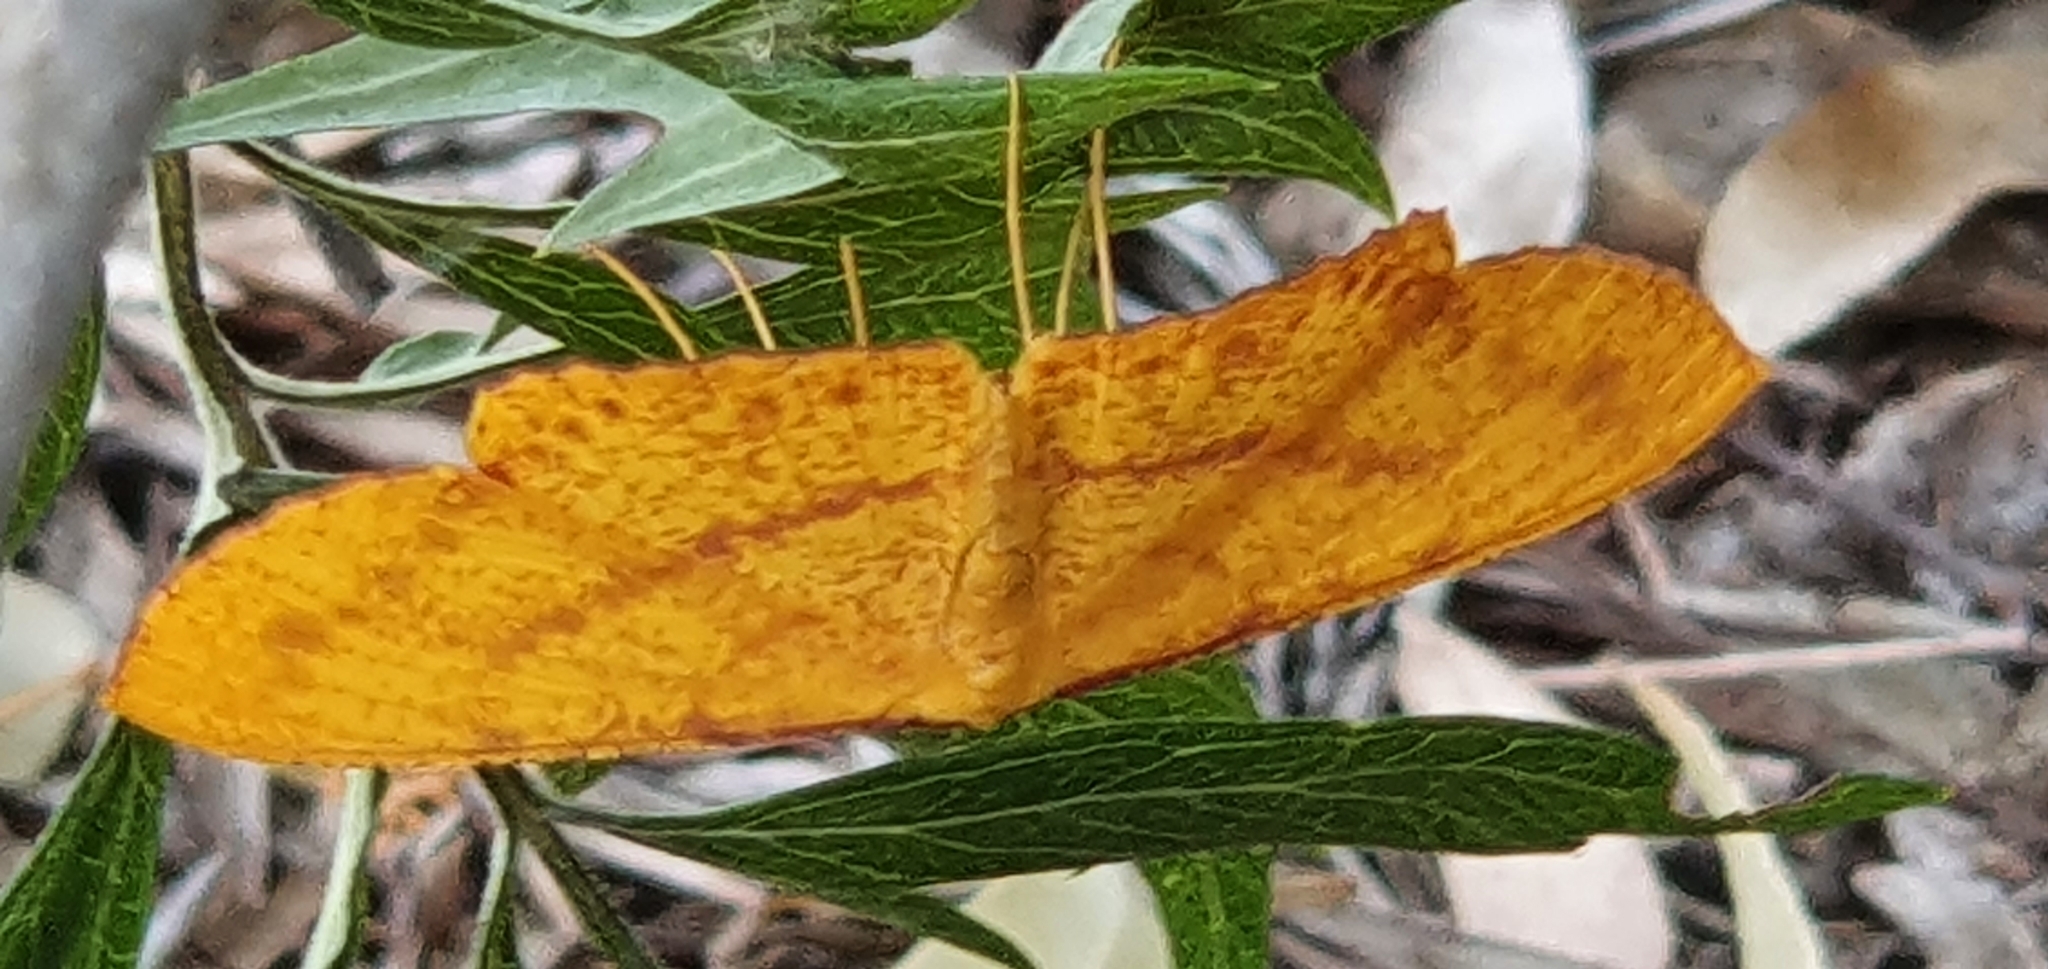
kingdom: Animalia
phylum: Arthropoda
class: Insecta
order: Lepidoptera
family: Geometridae
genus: Eumelea
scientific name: Eumelea rosalia
